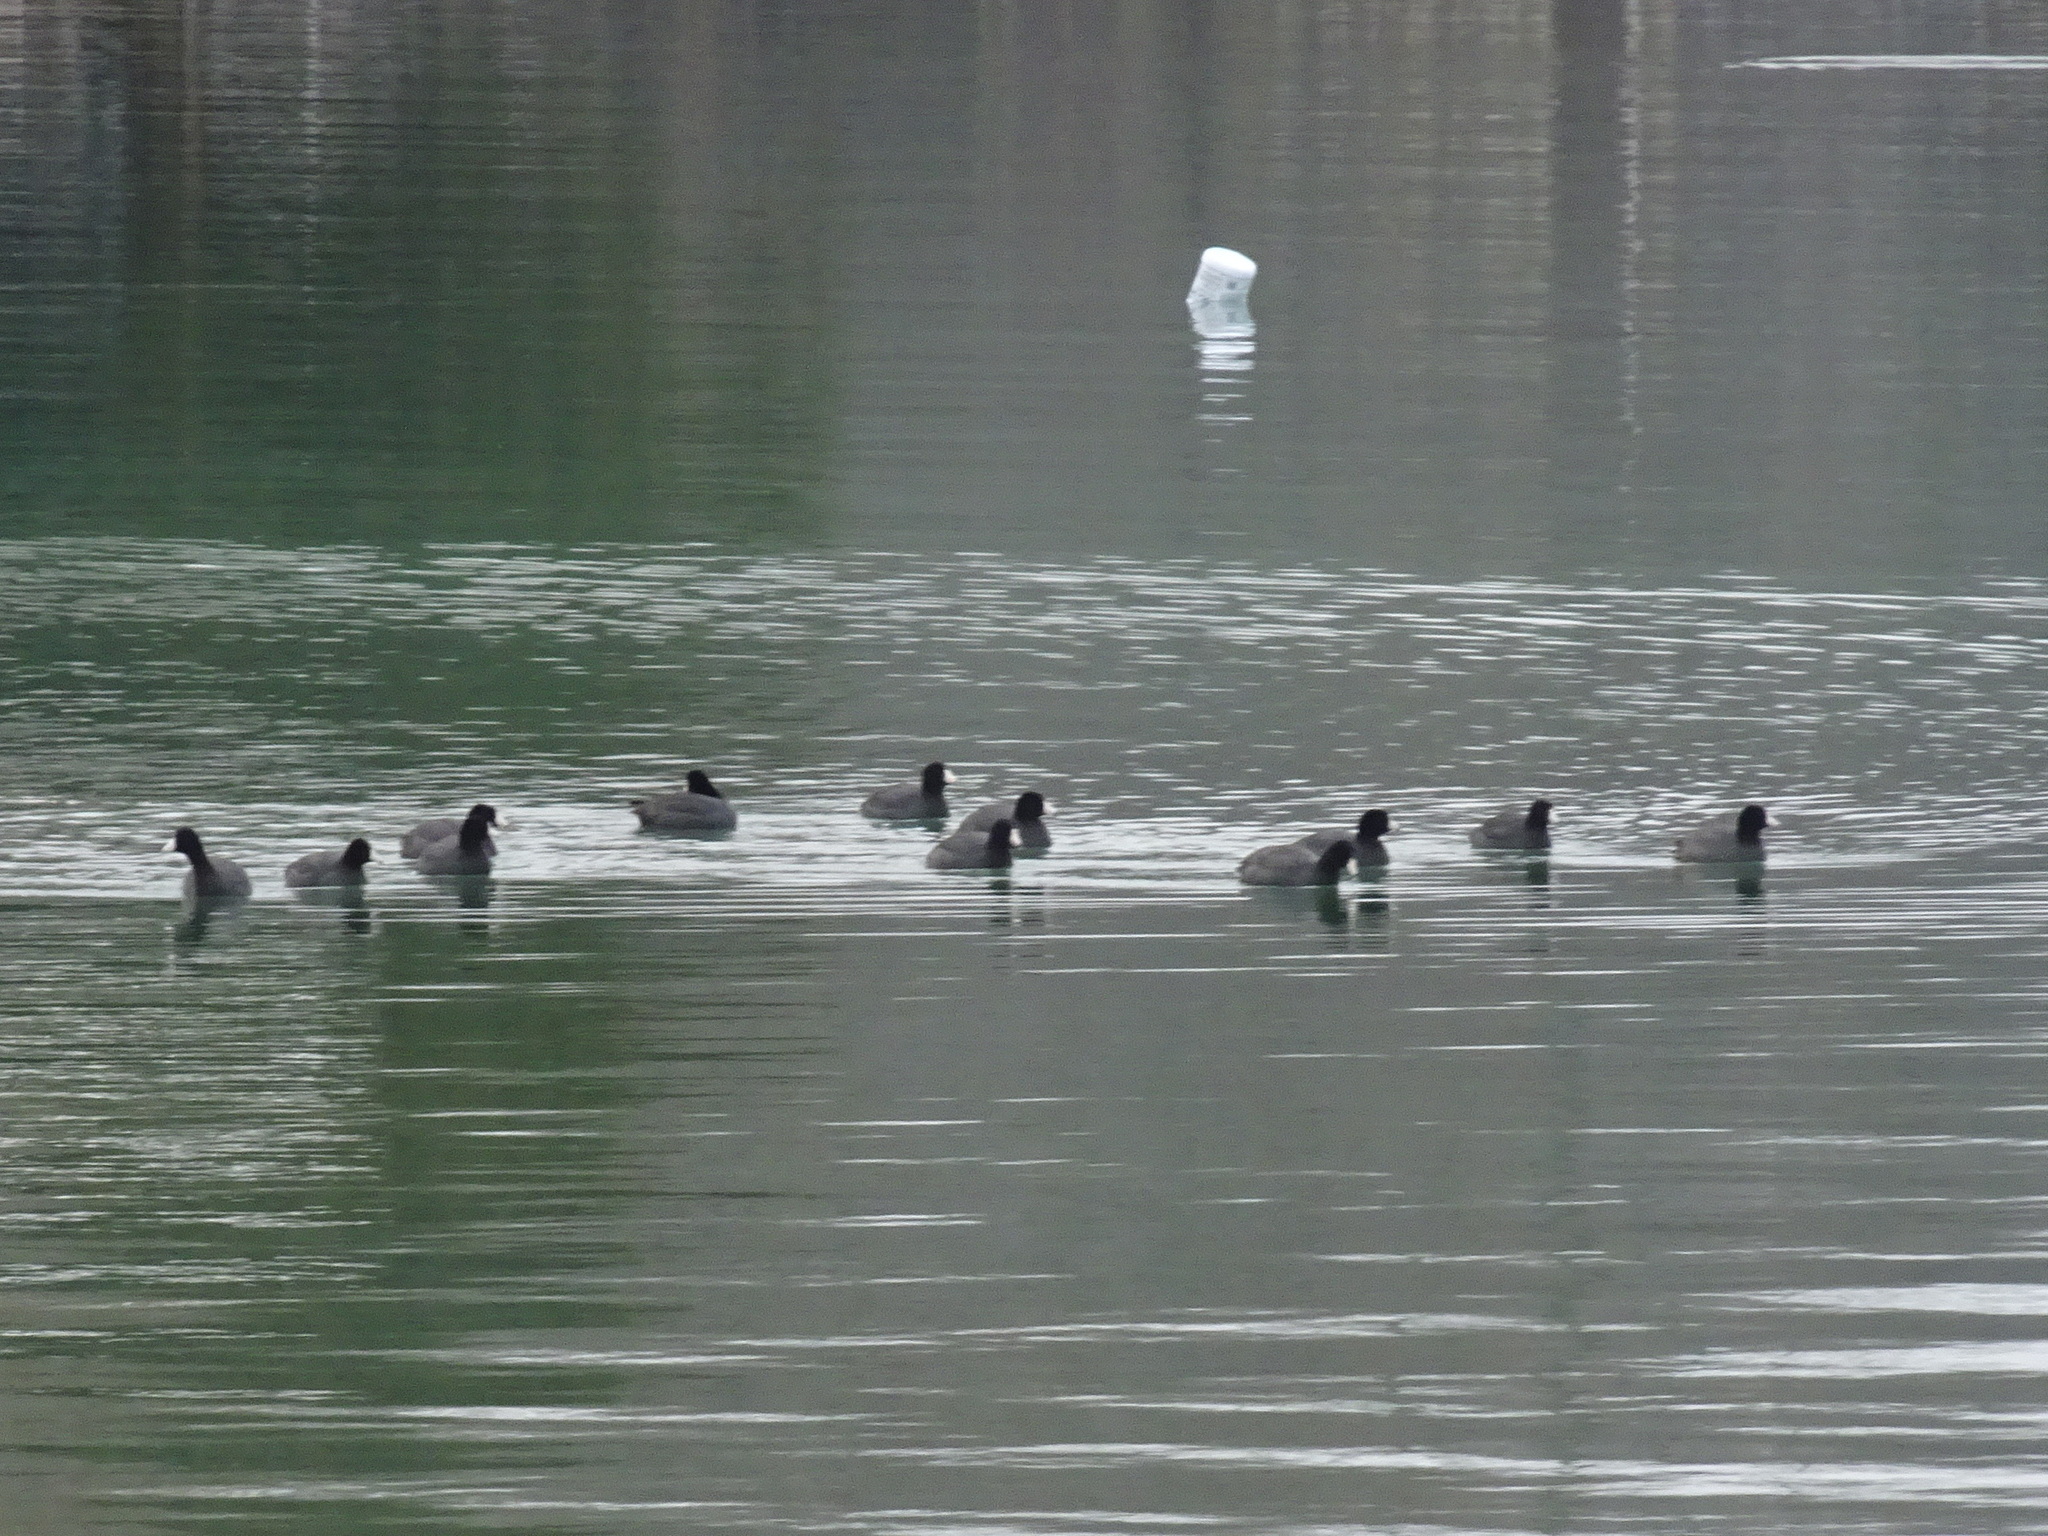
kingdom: Animalia
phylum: Chordata
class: Aves
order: Gruiformes
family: Rallidae
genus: Fulica
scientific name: Fulica americana
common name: American coot
